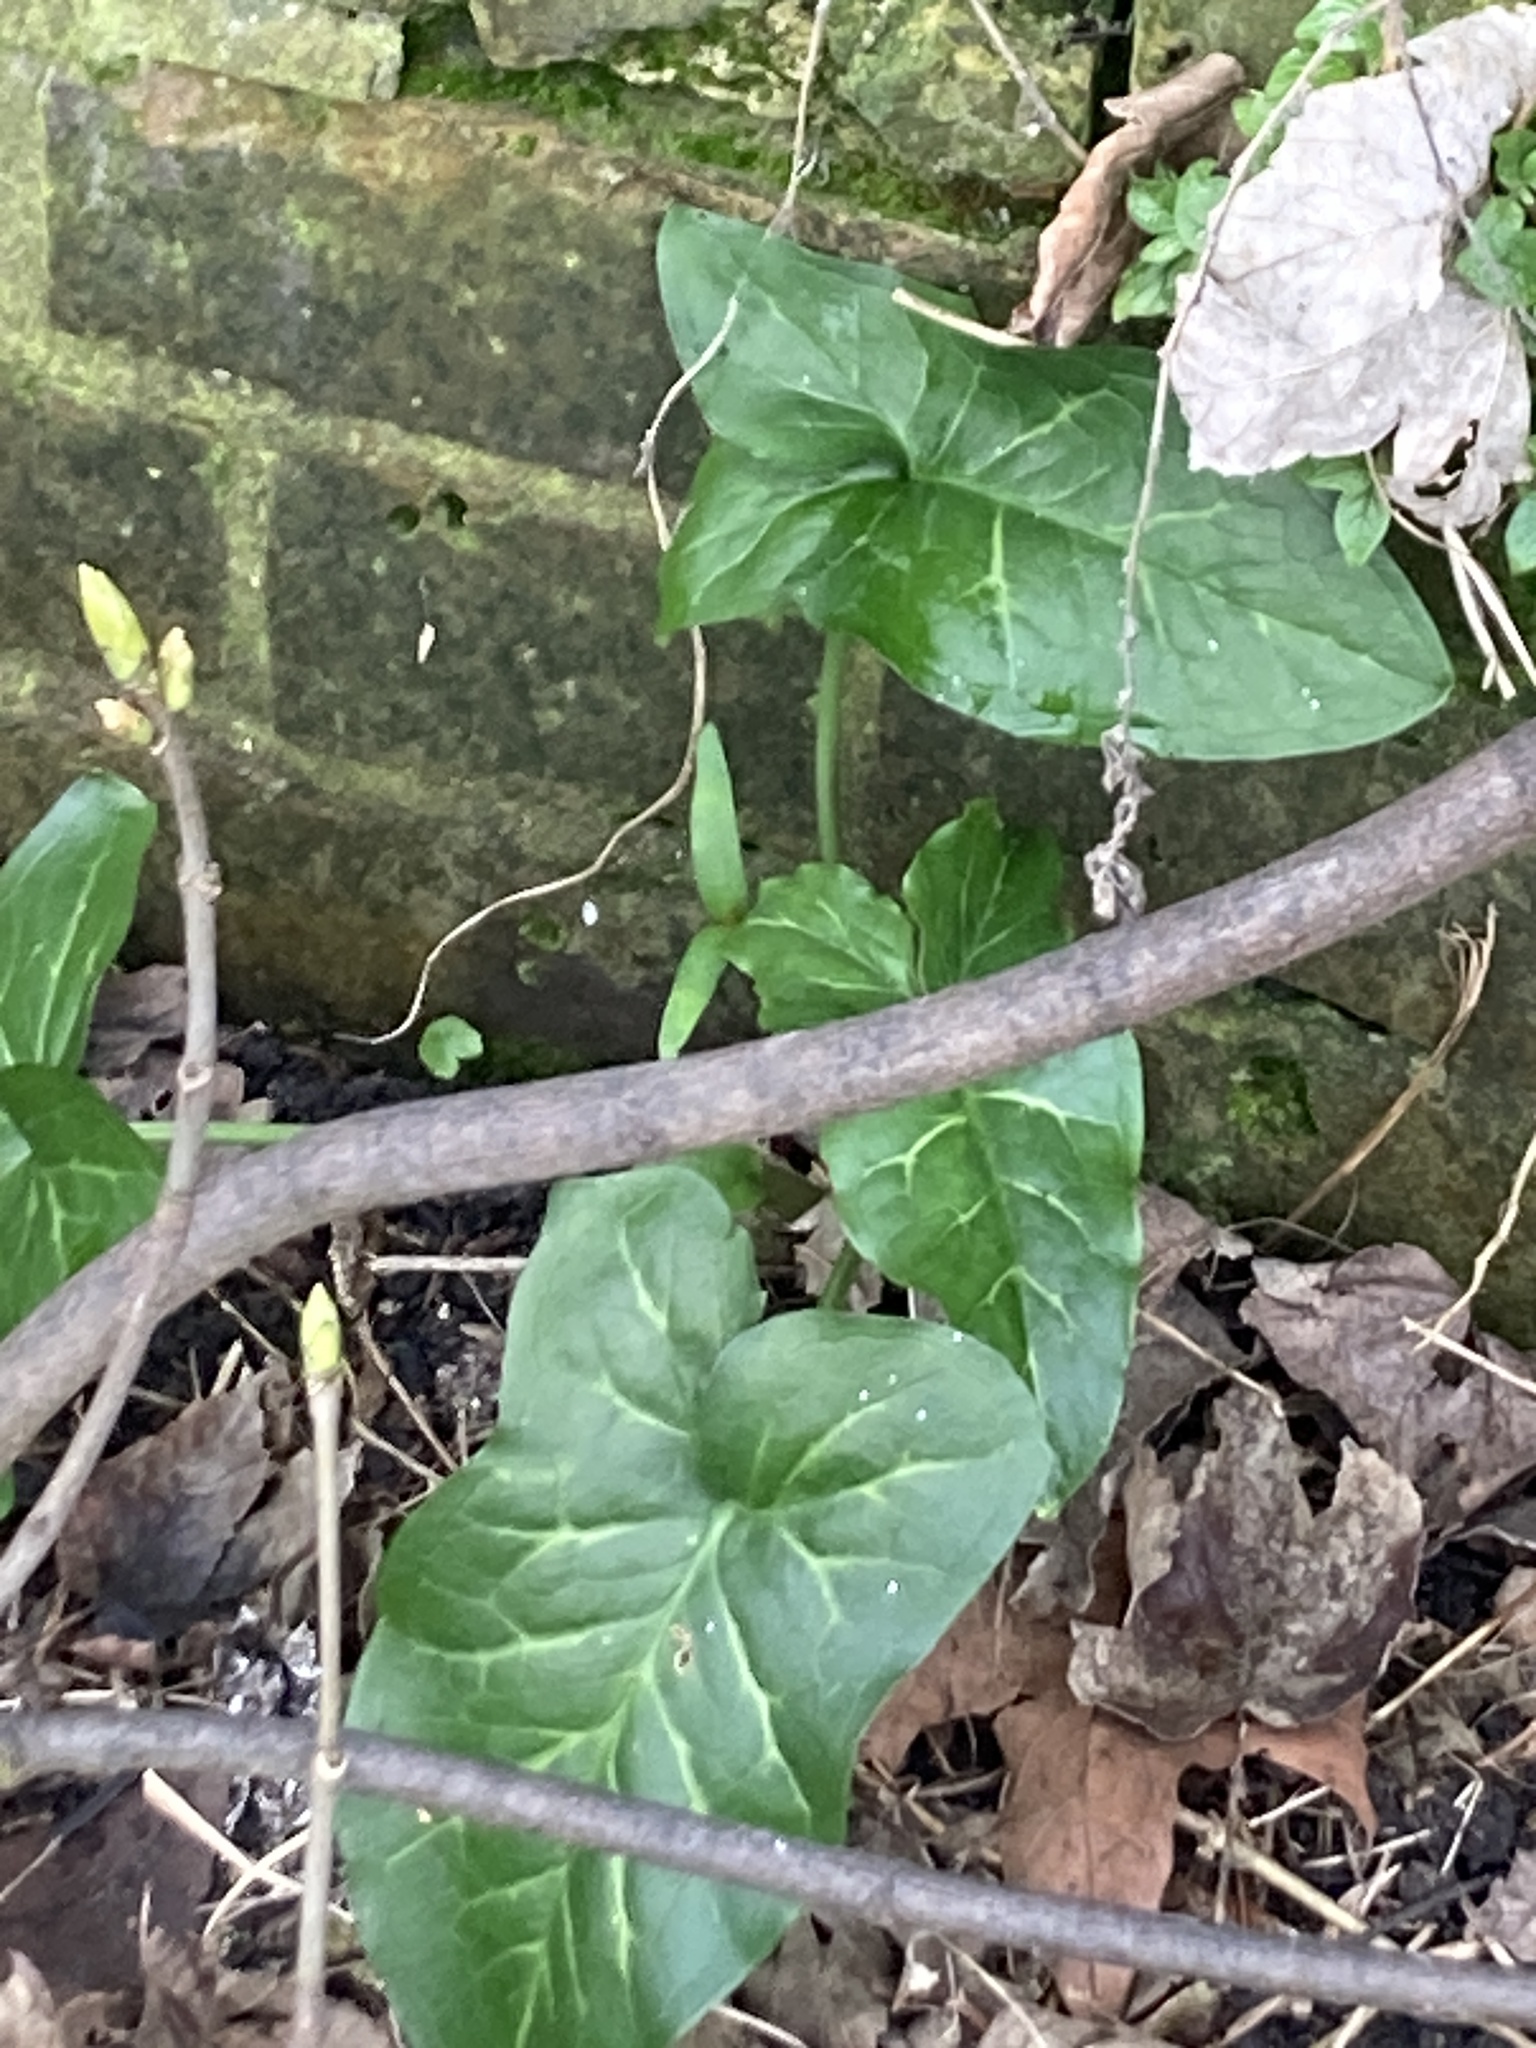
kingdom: Plantae
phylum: Tracheophyta
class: Liliopsida
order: Alismatales
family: Araceae
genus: Arum
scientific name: Arum italicum
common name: Italian lords-and-ladies
